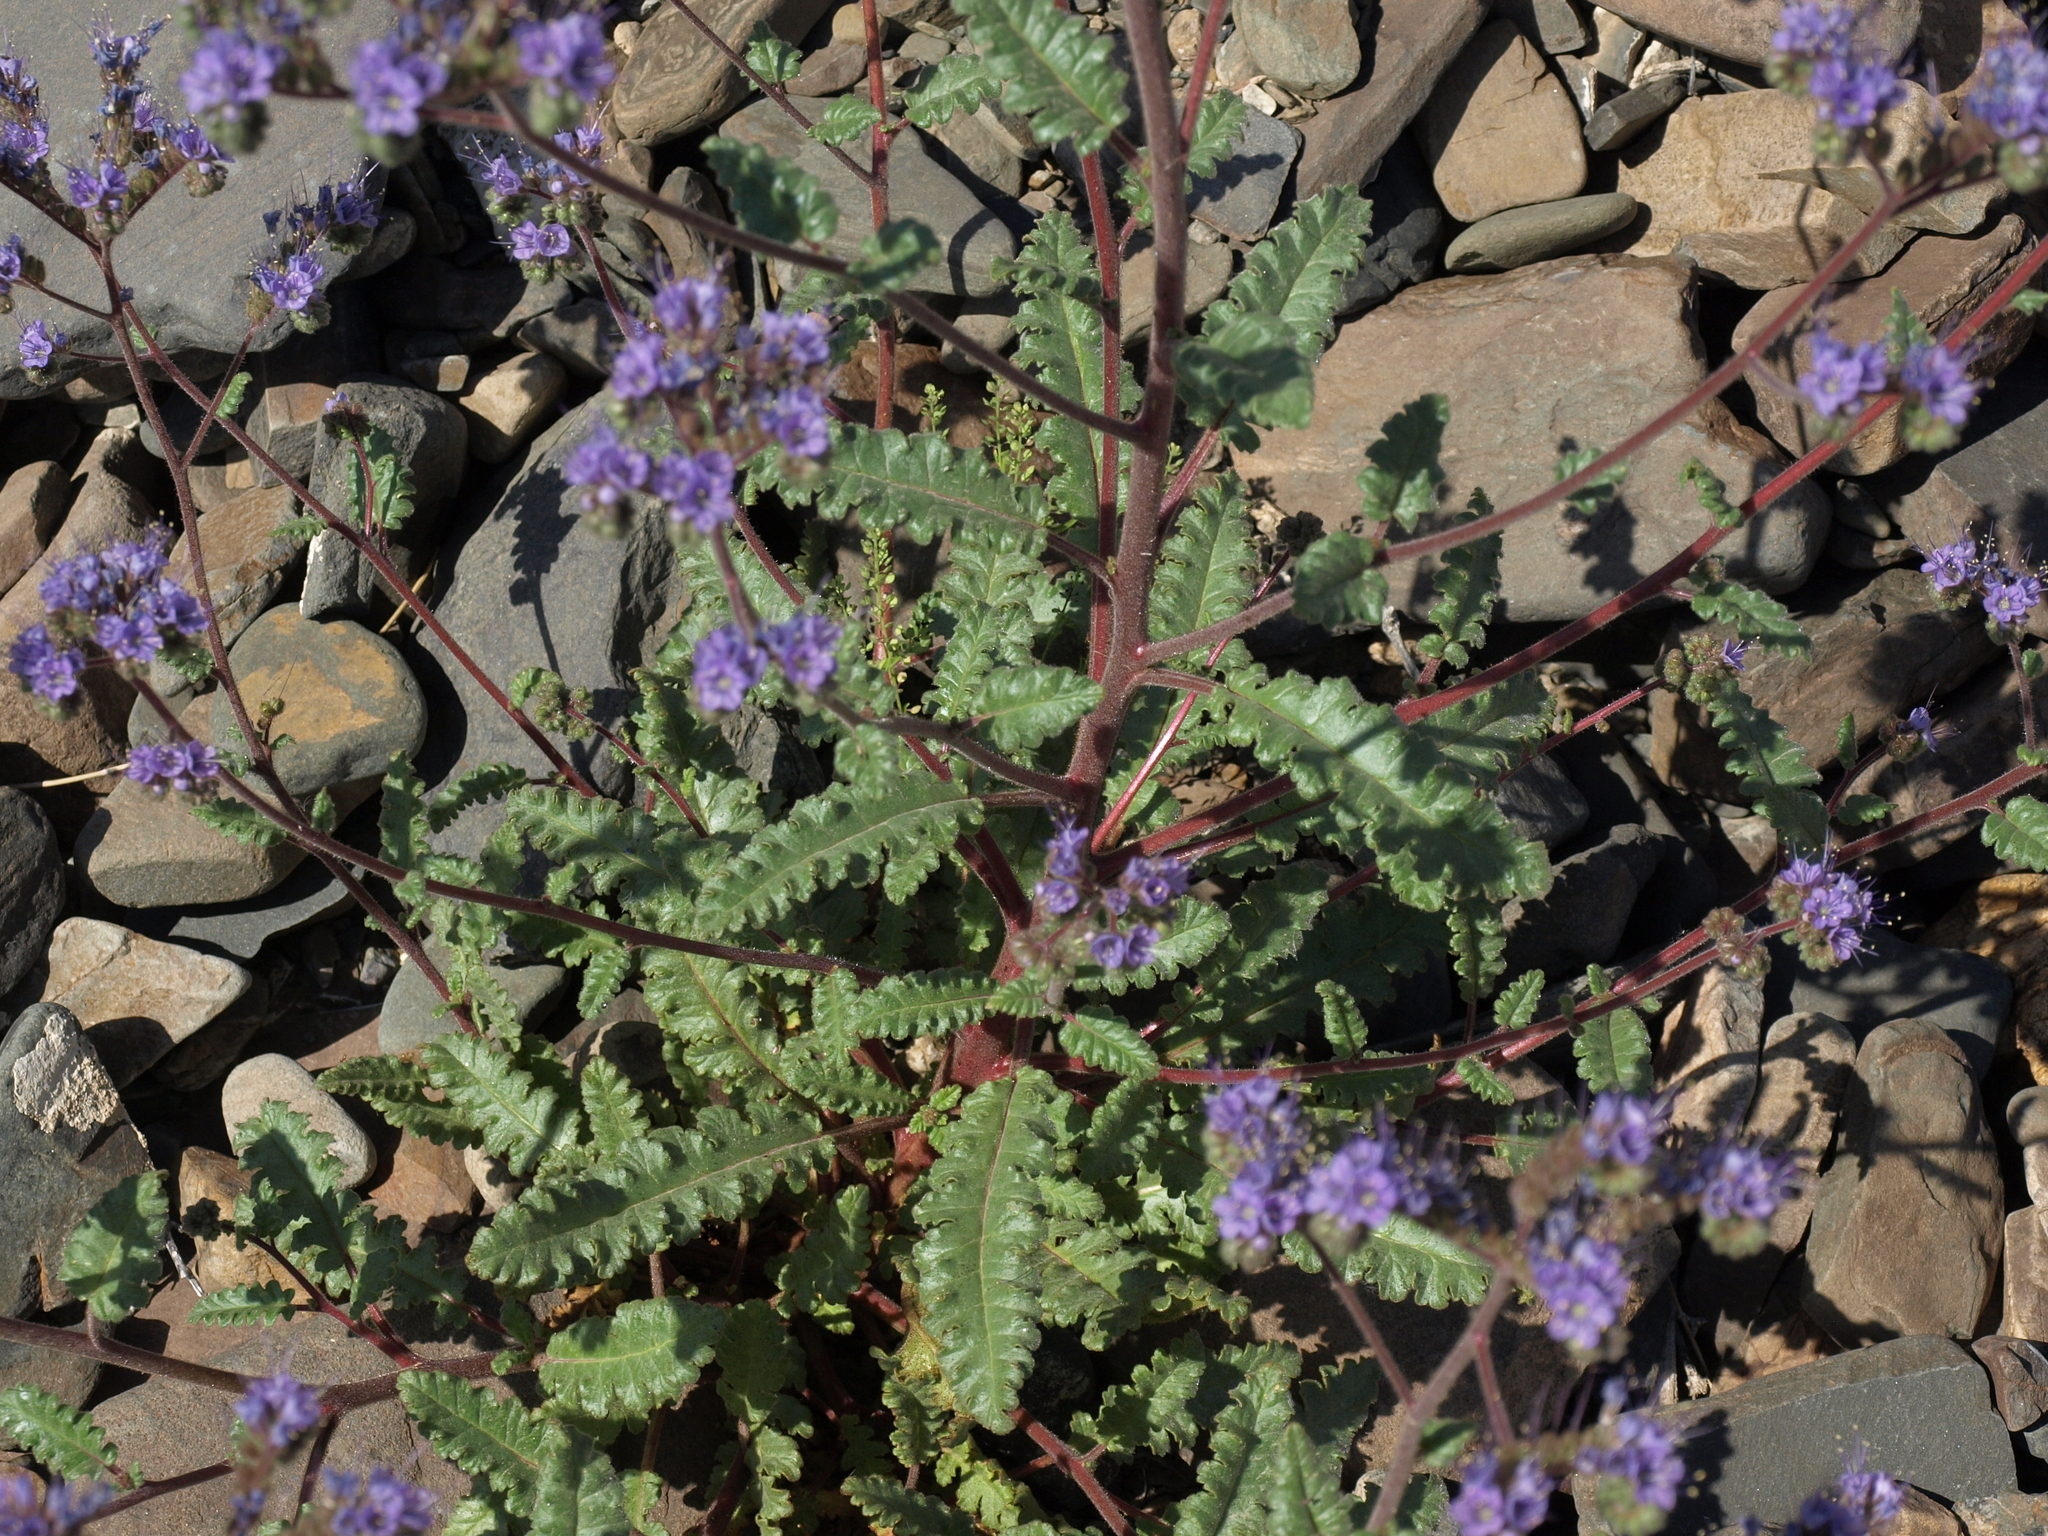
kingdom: Plantae
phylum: Tracheophyta
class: Magnoliopsida
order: Boraginales
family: Hydrophyllaceae
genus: Phacelia
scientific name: Phacelia crenulata
